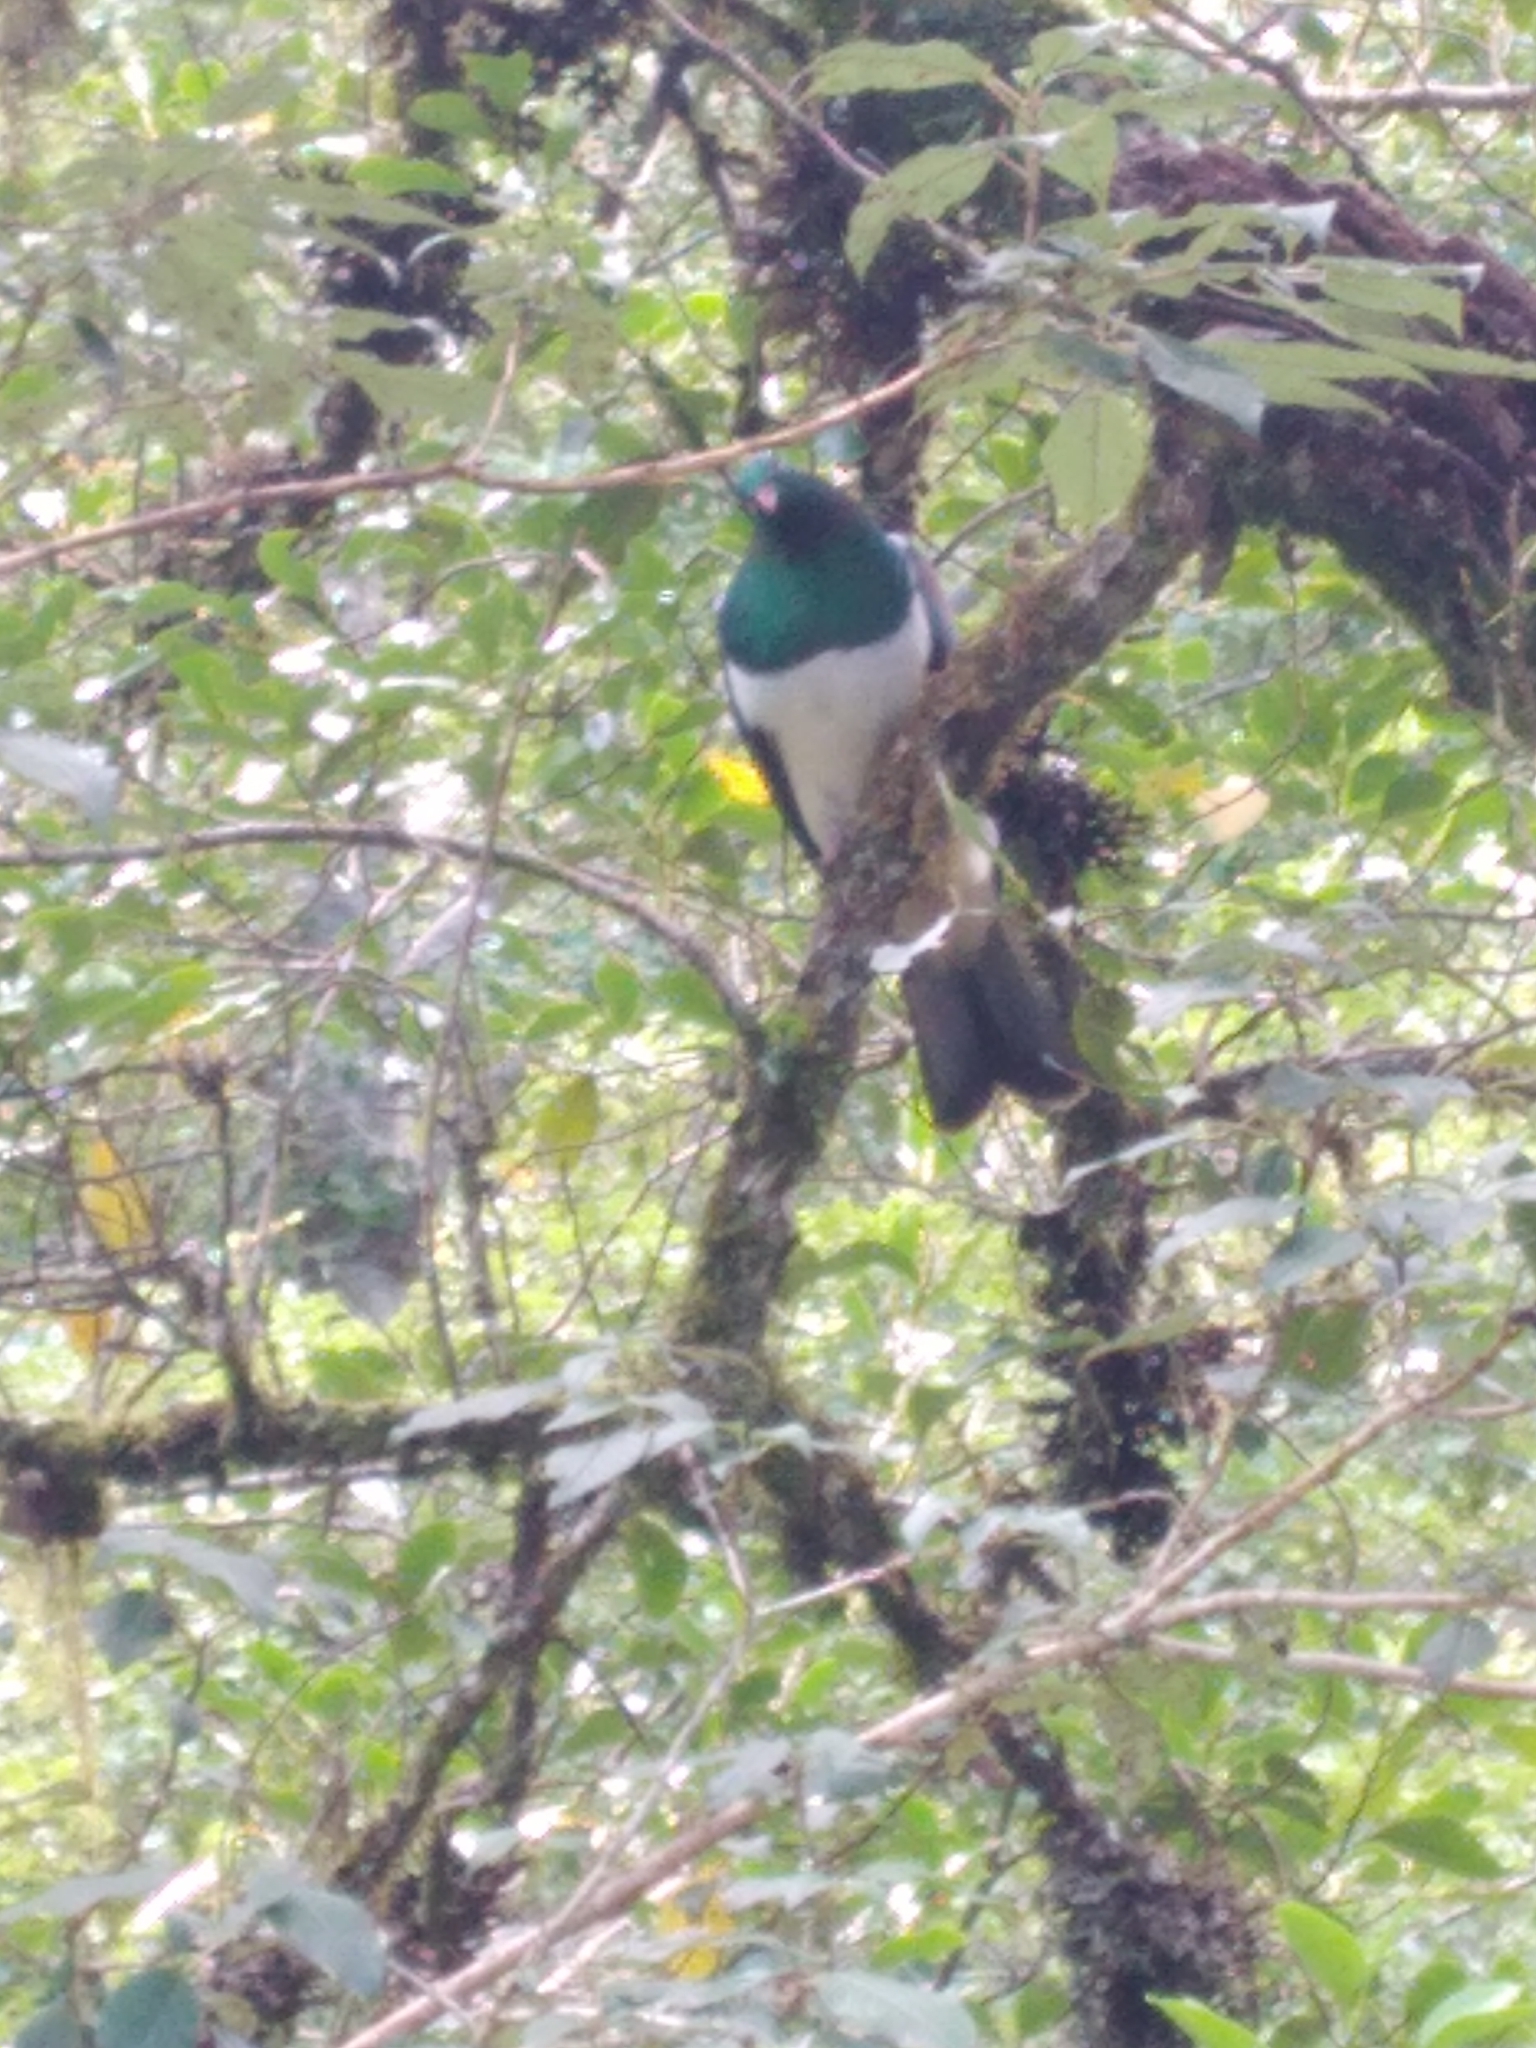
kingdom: Animalia
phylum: Chordata
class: Aves
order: Columbiformes
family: Columbidae
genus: Hemiphaga
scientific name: Hemiphaga novaeseelandiae
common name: New zealand pigeon
